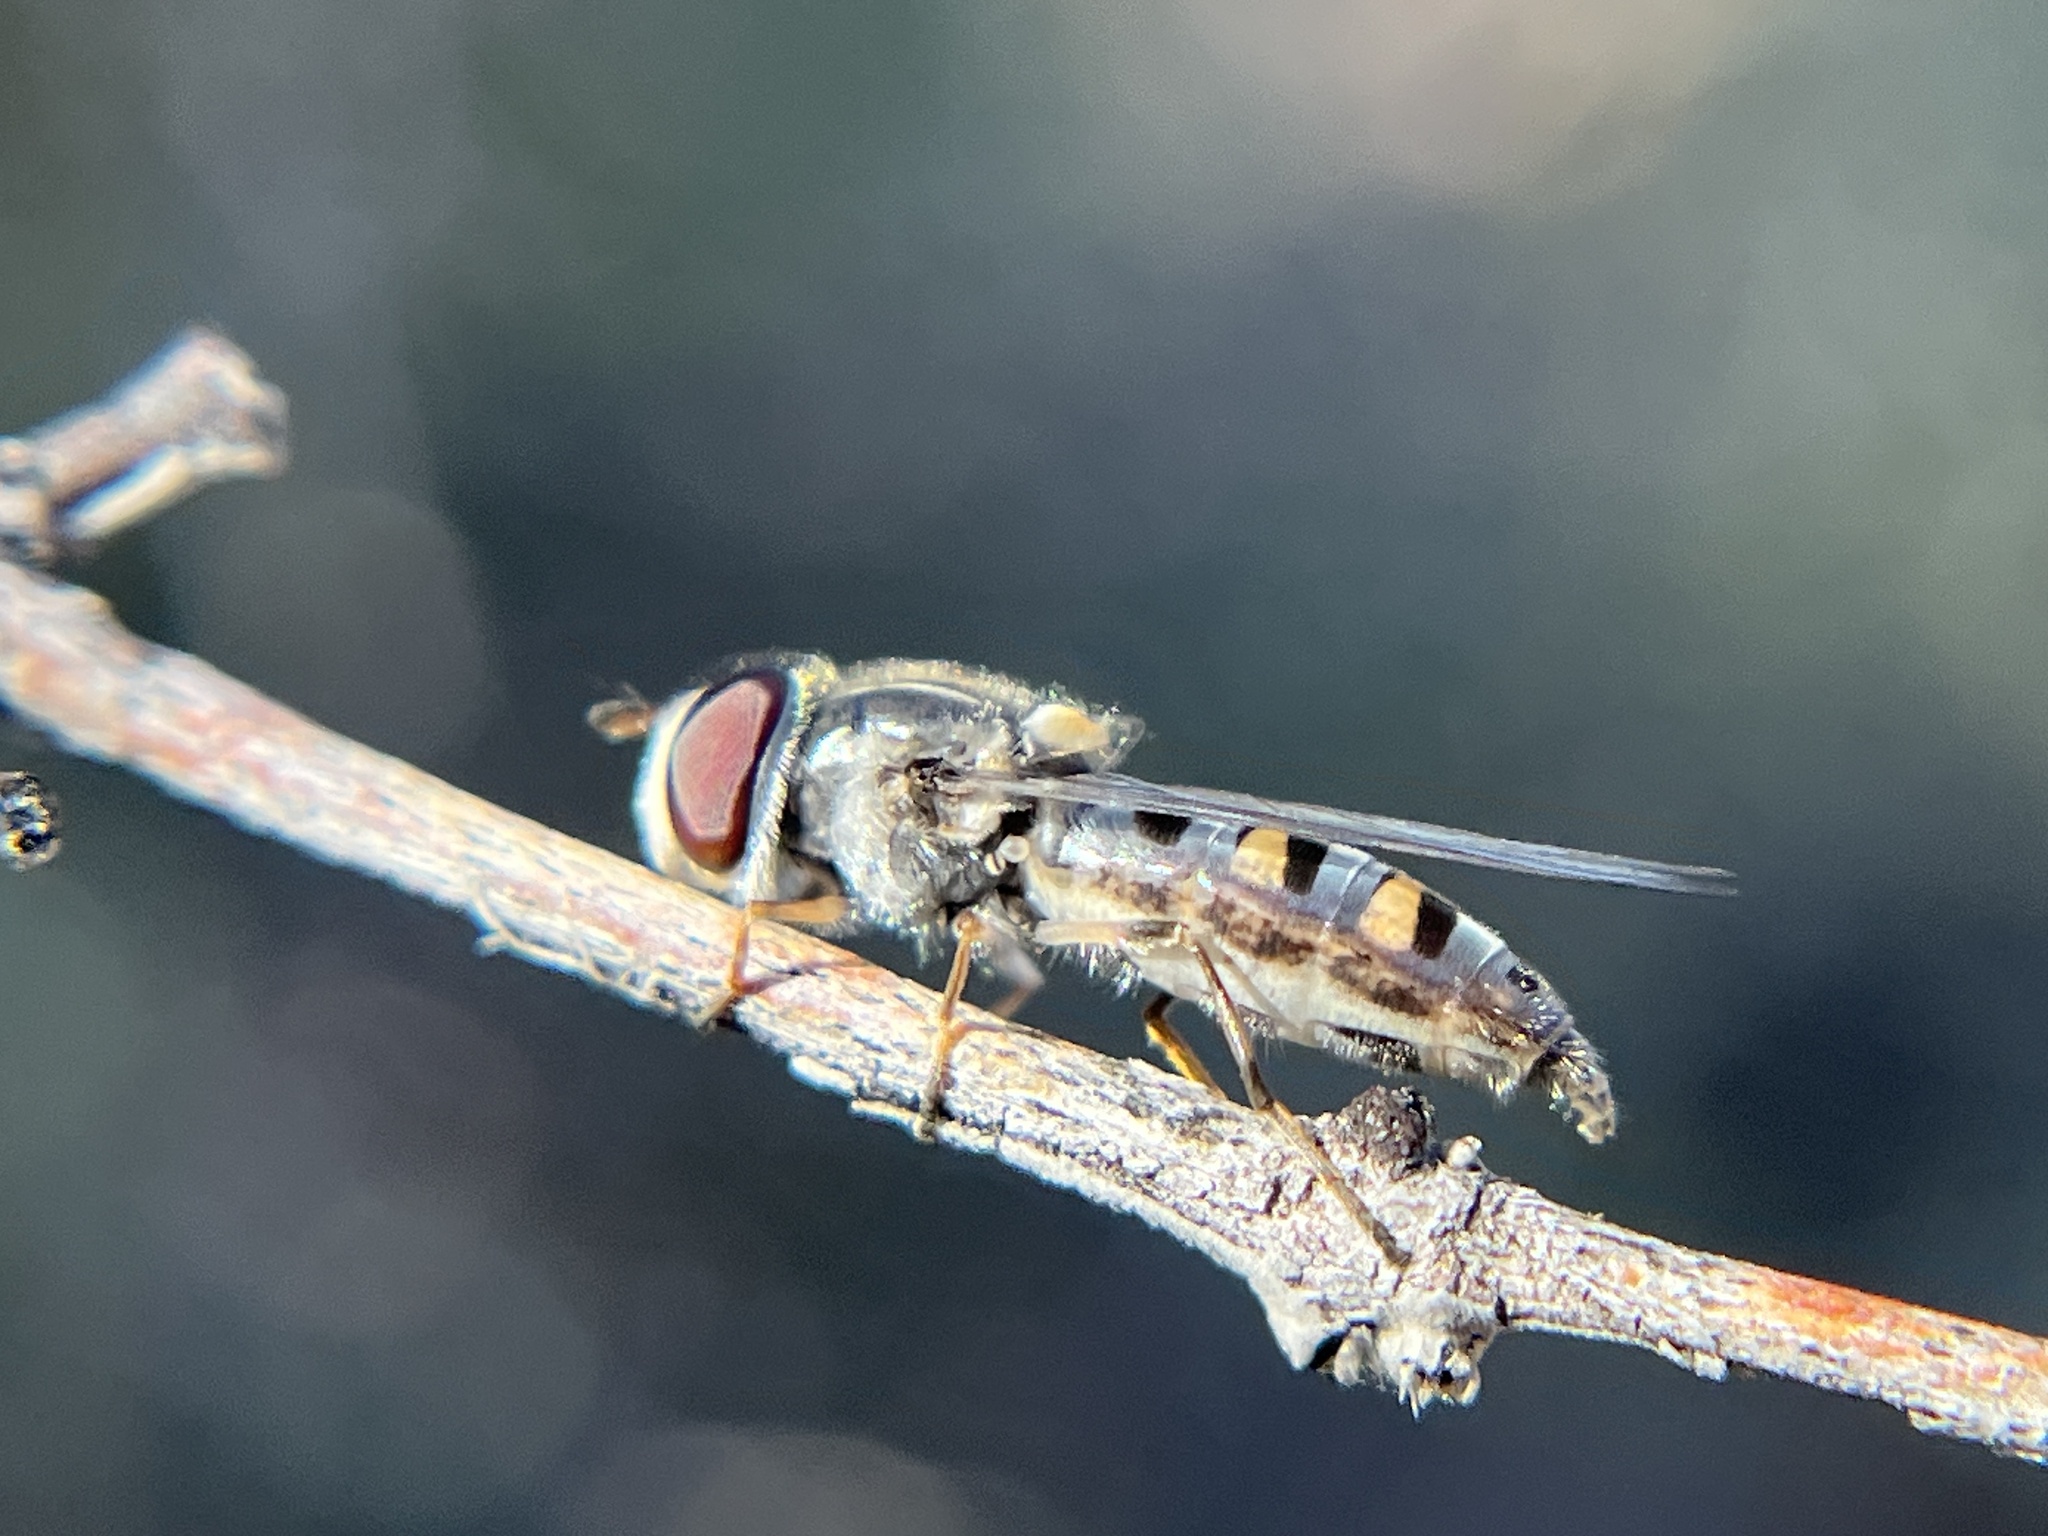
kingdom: Animalia
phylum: Arthropoda
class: Insecta
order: Diptera
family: Syrphidae
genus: Pseudoscaeva
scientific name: Pseudoscaeva diversifasciata
